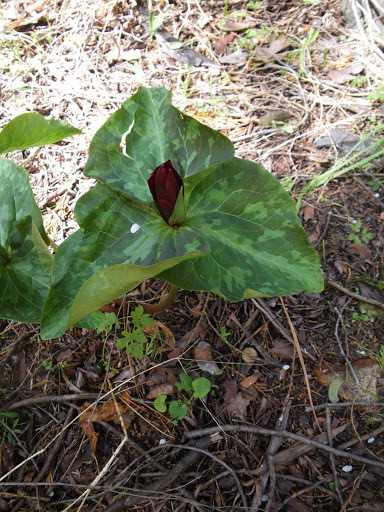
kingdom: Plantae
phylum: Tracheophyta
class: Liliopsida
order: Liliales
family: Melanthiaceae
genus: Trillium
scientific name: Trillium chloropetalum
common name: Giant trillium
